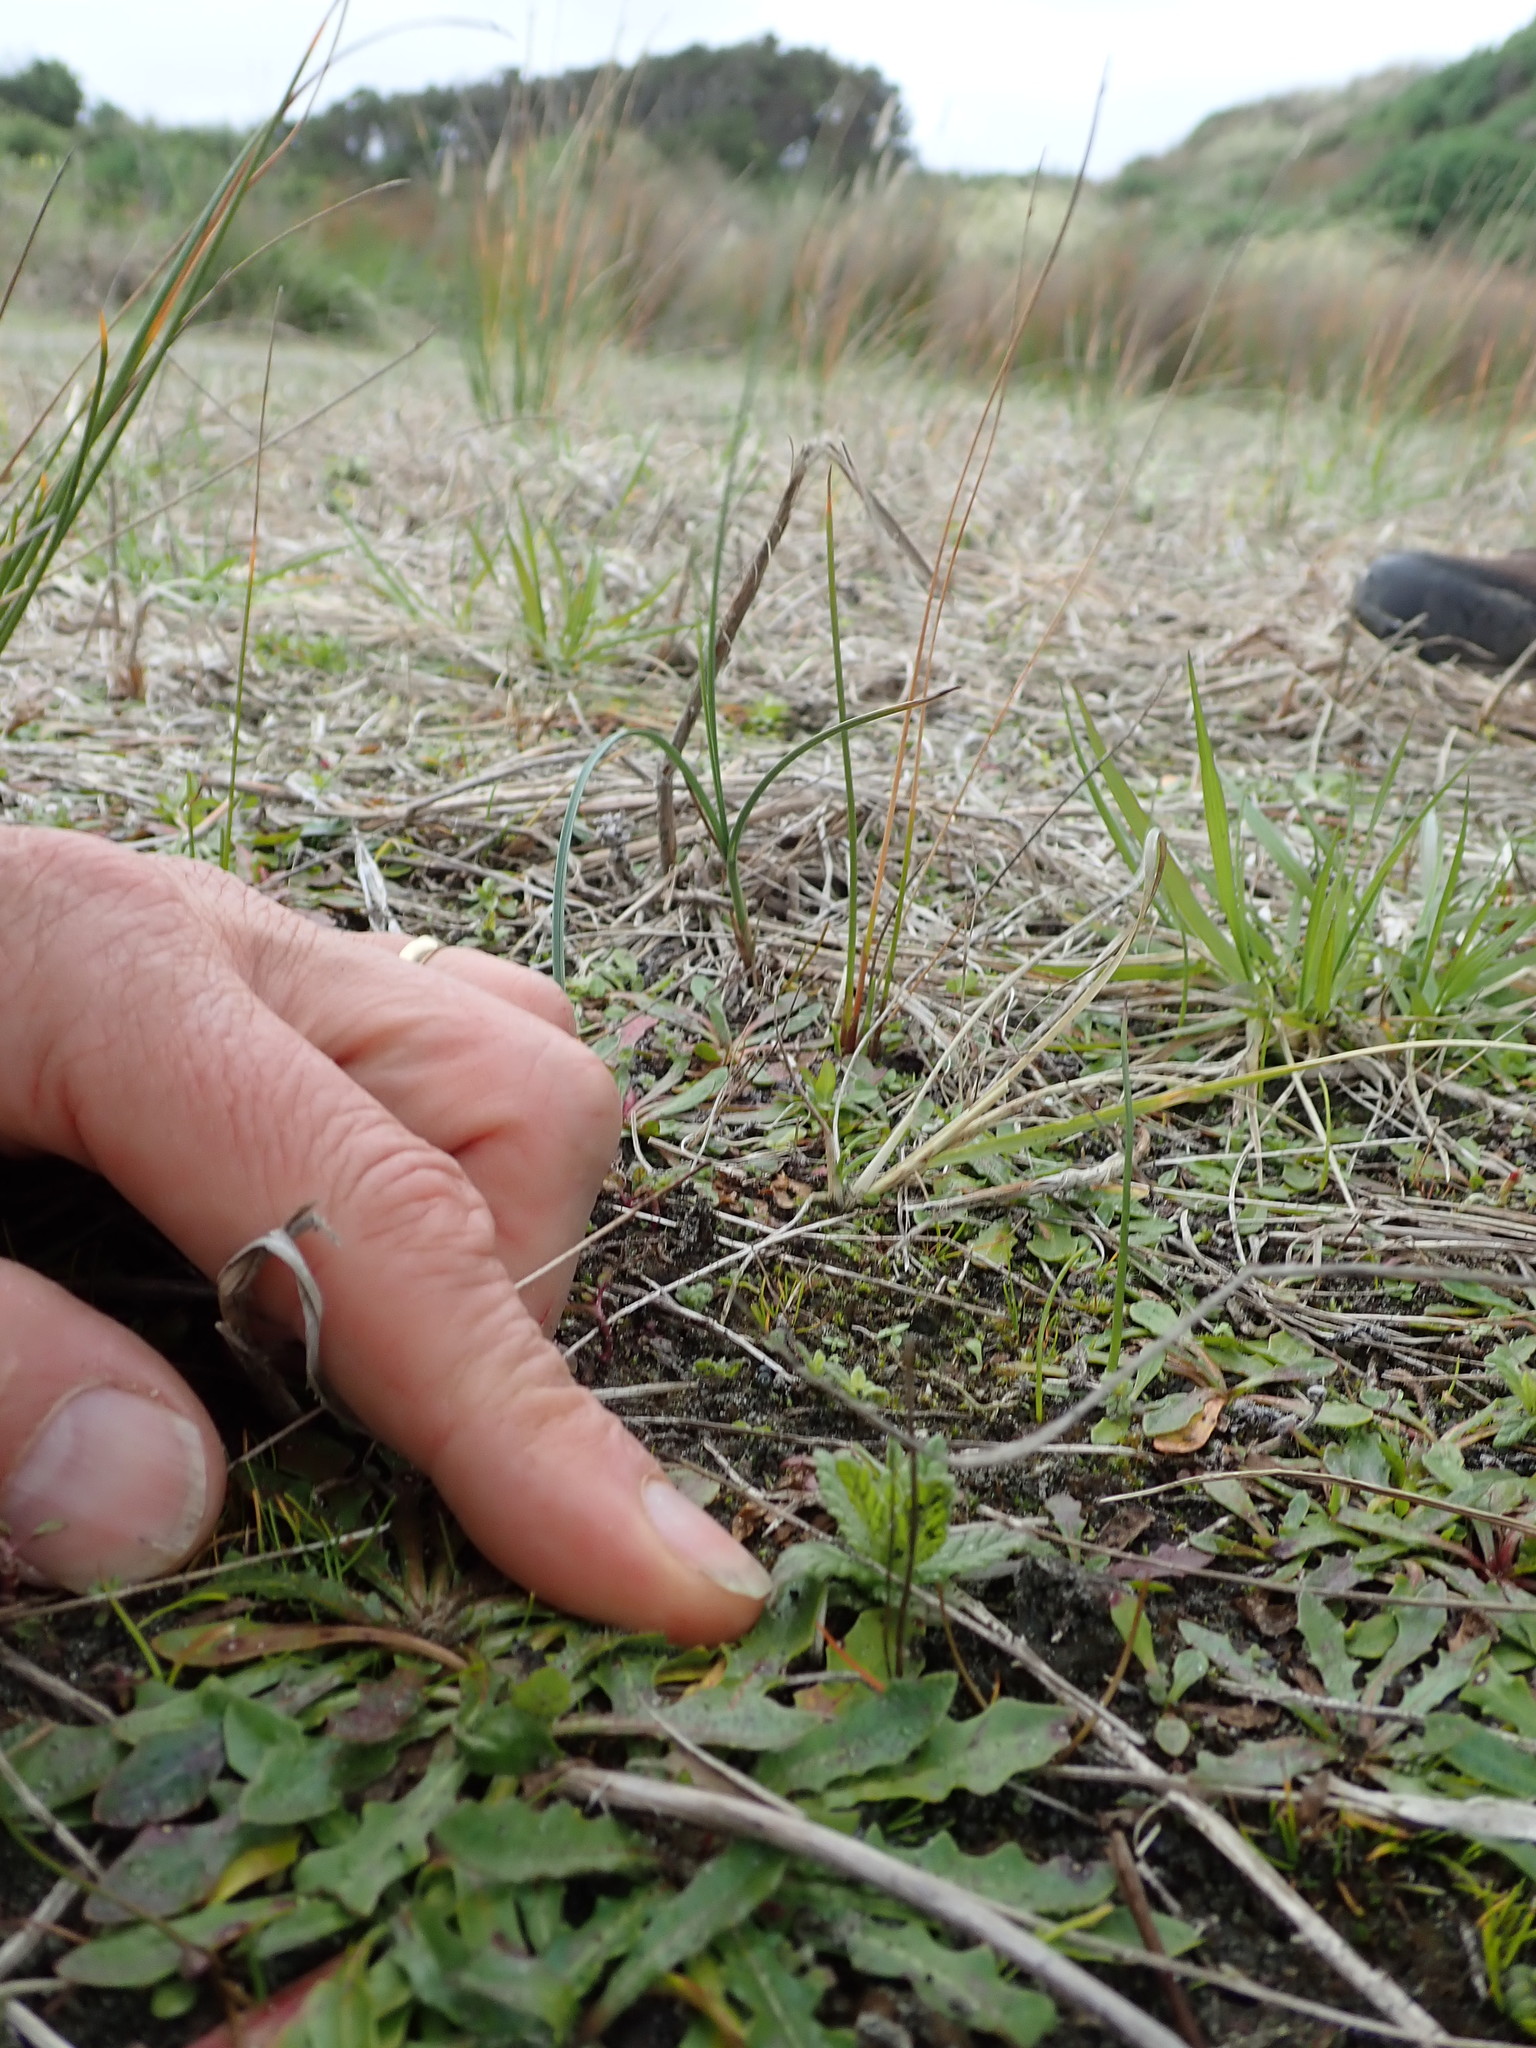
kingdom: Plantae
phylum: Tracheophyta
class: Magnoliopsida
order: Lamiales
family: Orobanchaceae
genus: Bellardia
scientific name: Bellardia viscosa
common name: Sticky parentucellia
